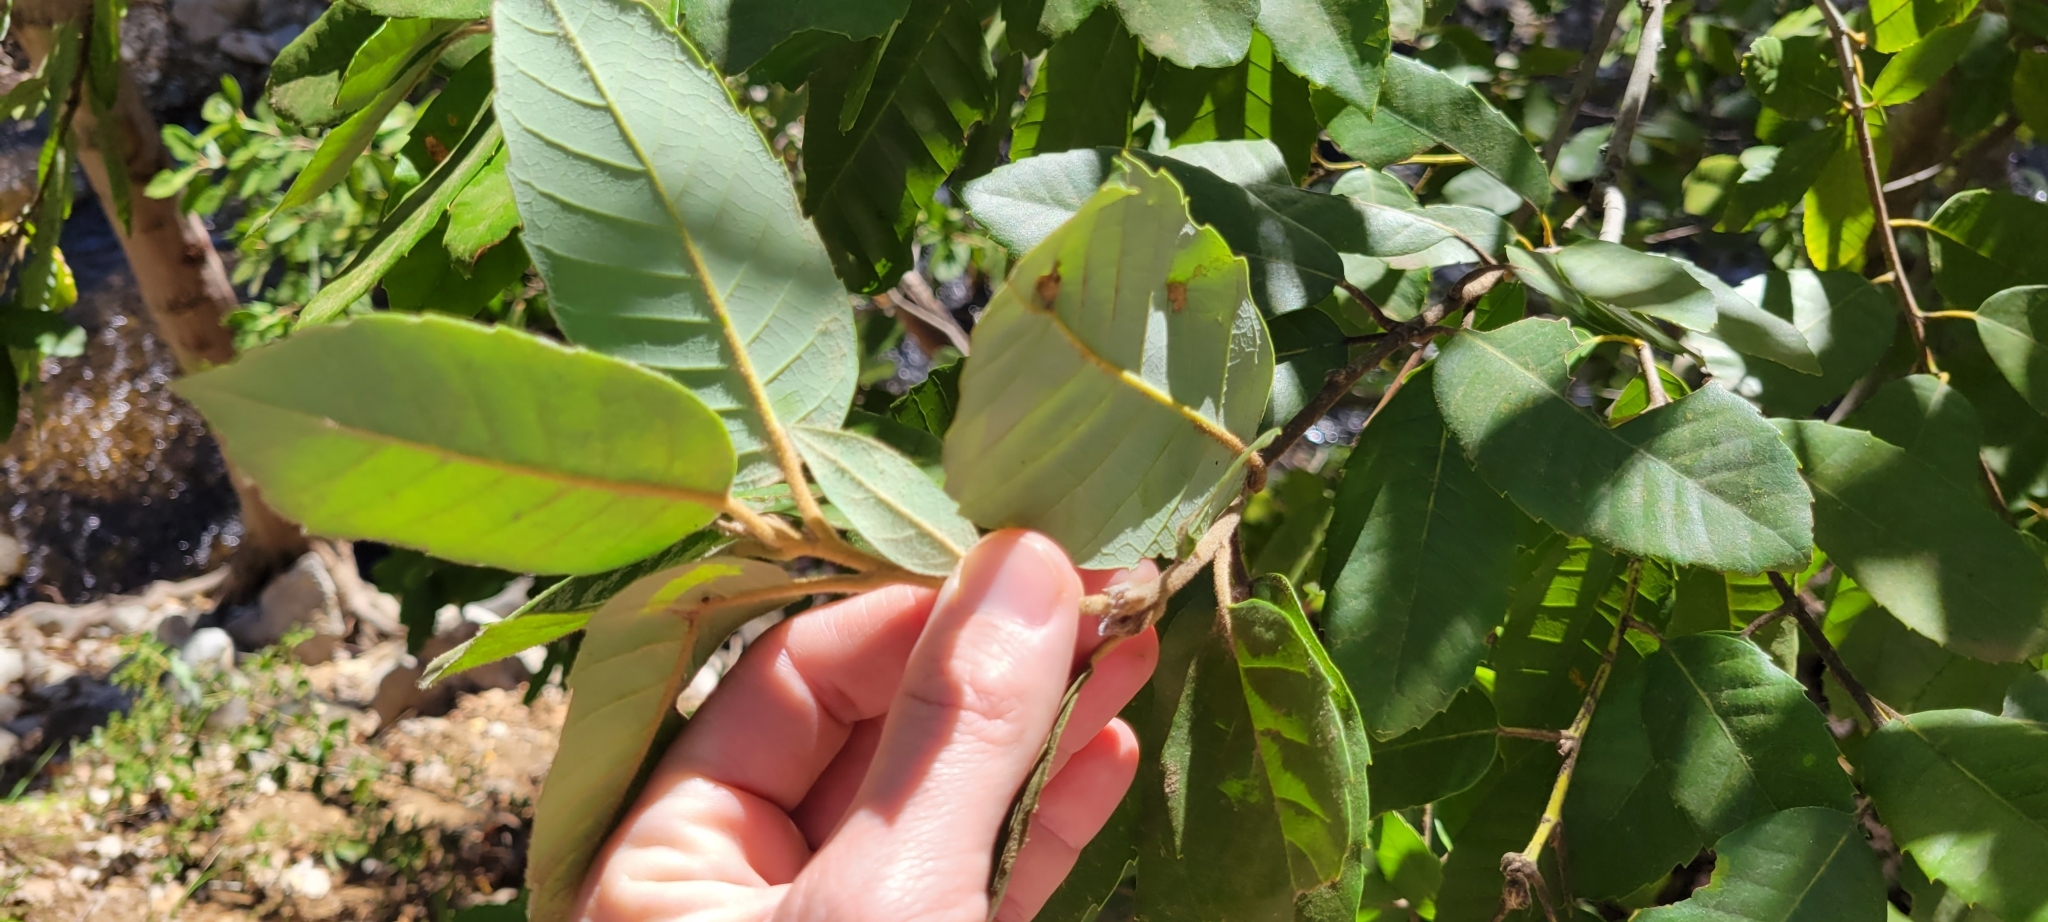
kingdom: Plantae
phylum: Tracheophyta
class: Magnoliopsida
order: Fagales
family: Fagaceae
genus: Notholithocarpus
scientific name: Notholithocarpus densiflorus
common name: Tan bark oak
